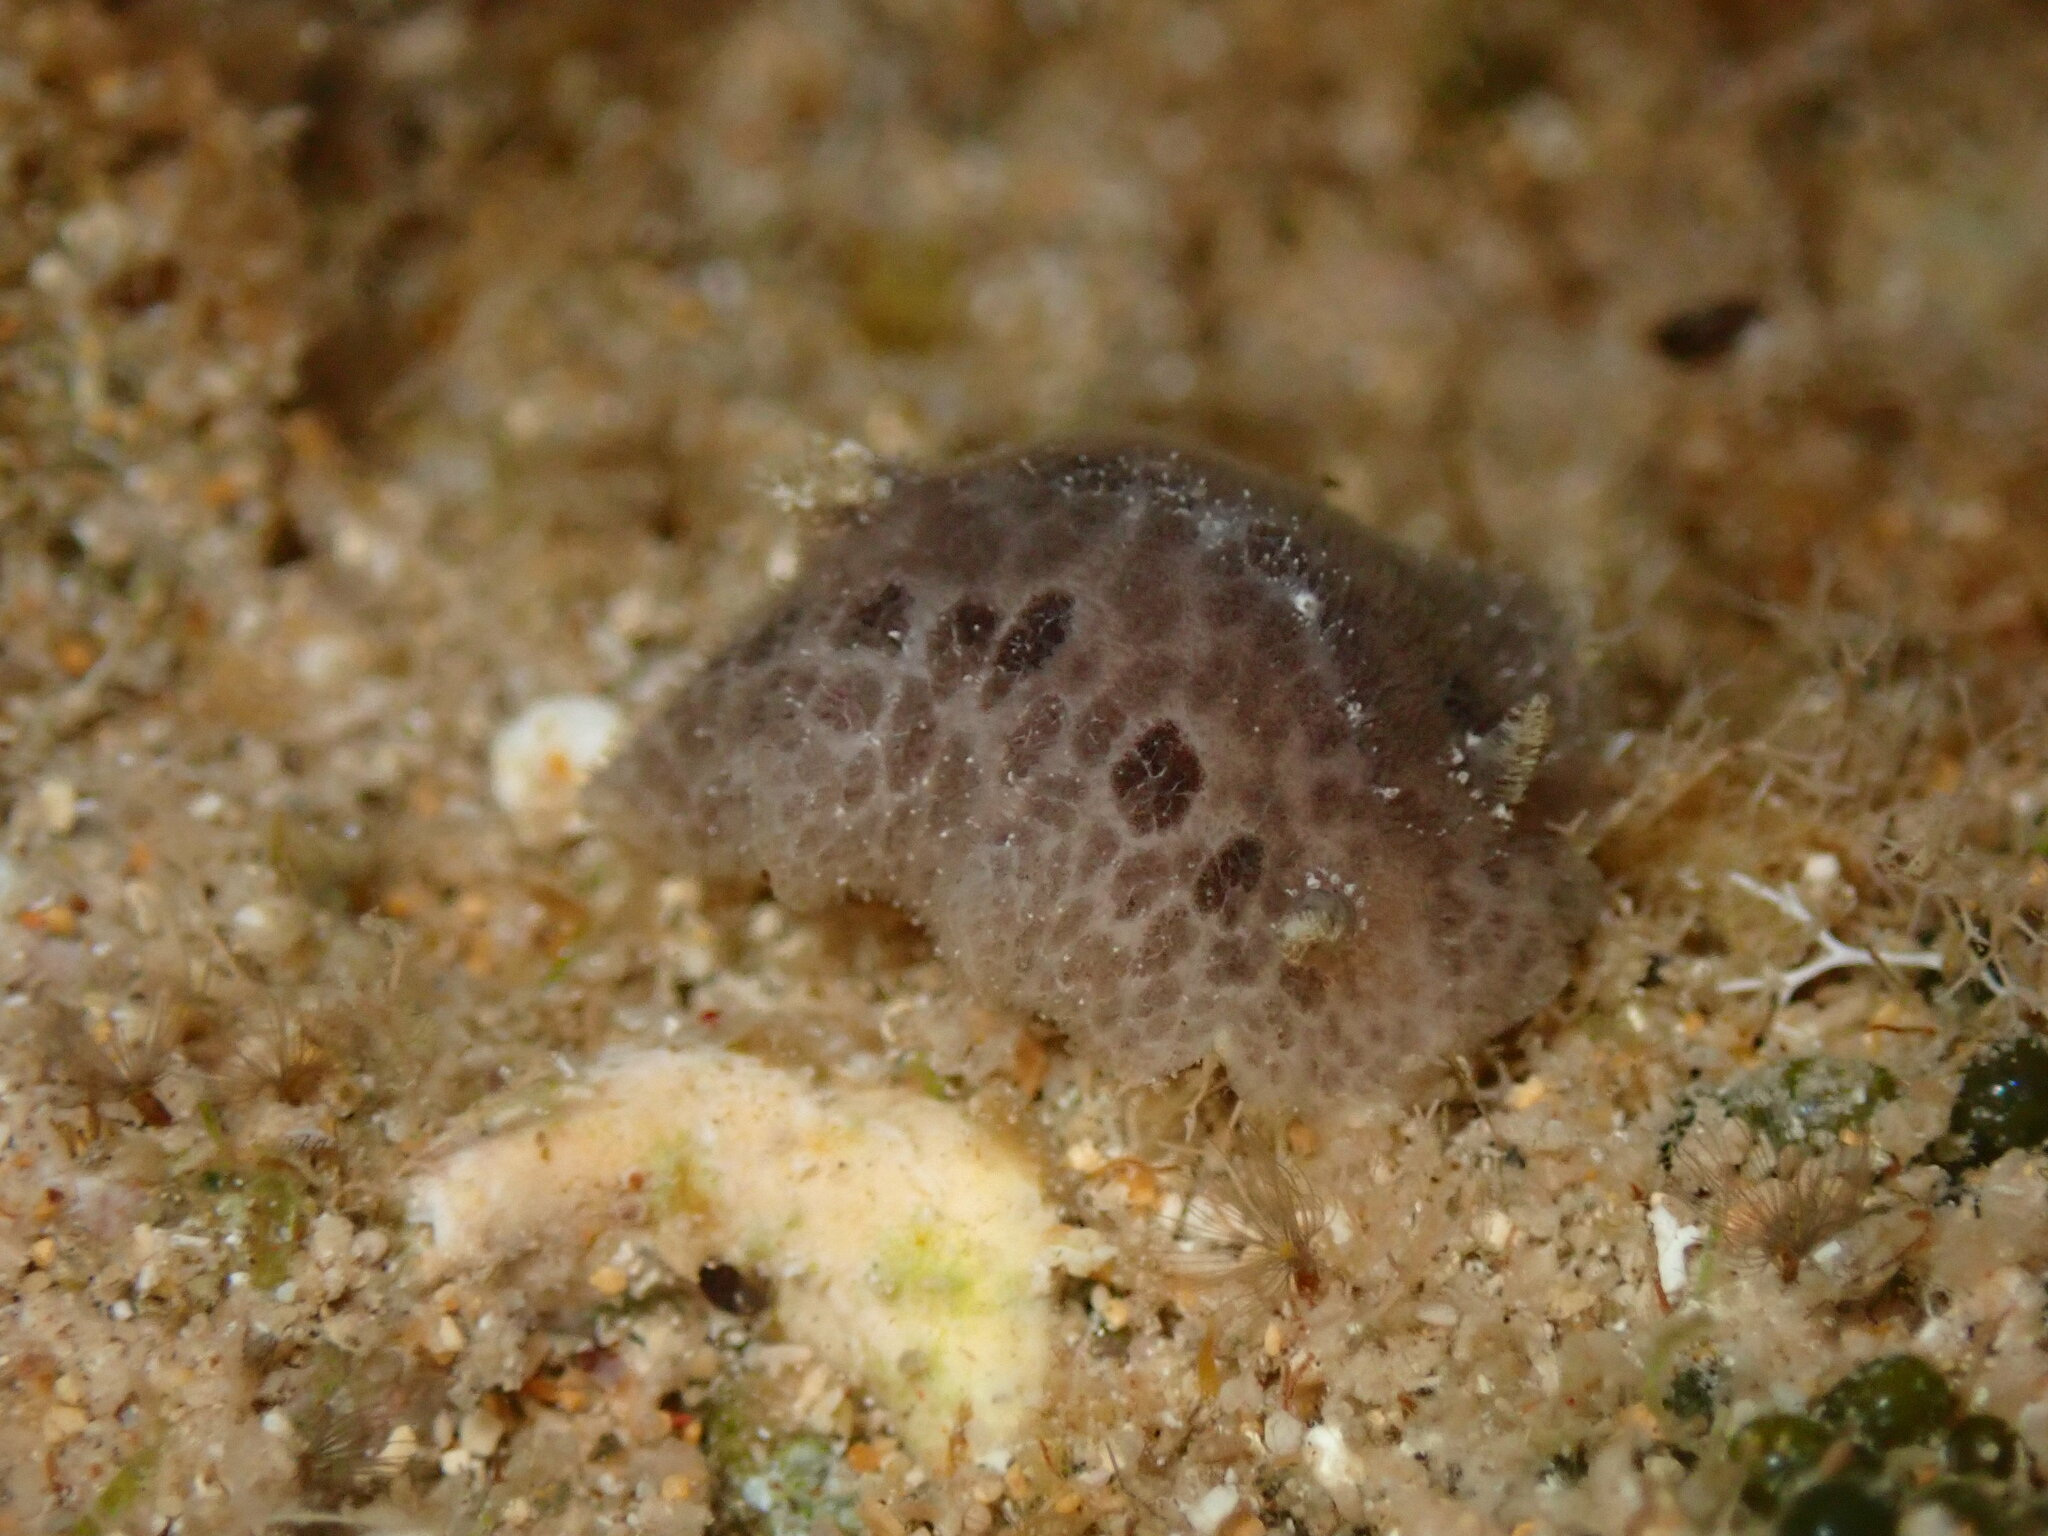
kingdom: Animalia
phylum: Mollusca
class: Gastropoda
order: Nudibranchia
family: Discodorididae
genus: Tayuva
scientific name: Tayuva lilacina
